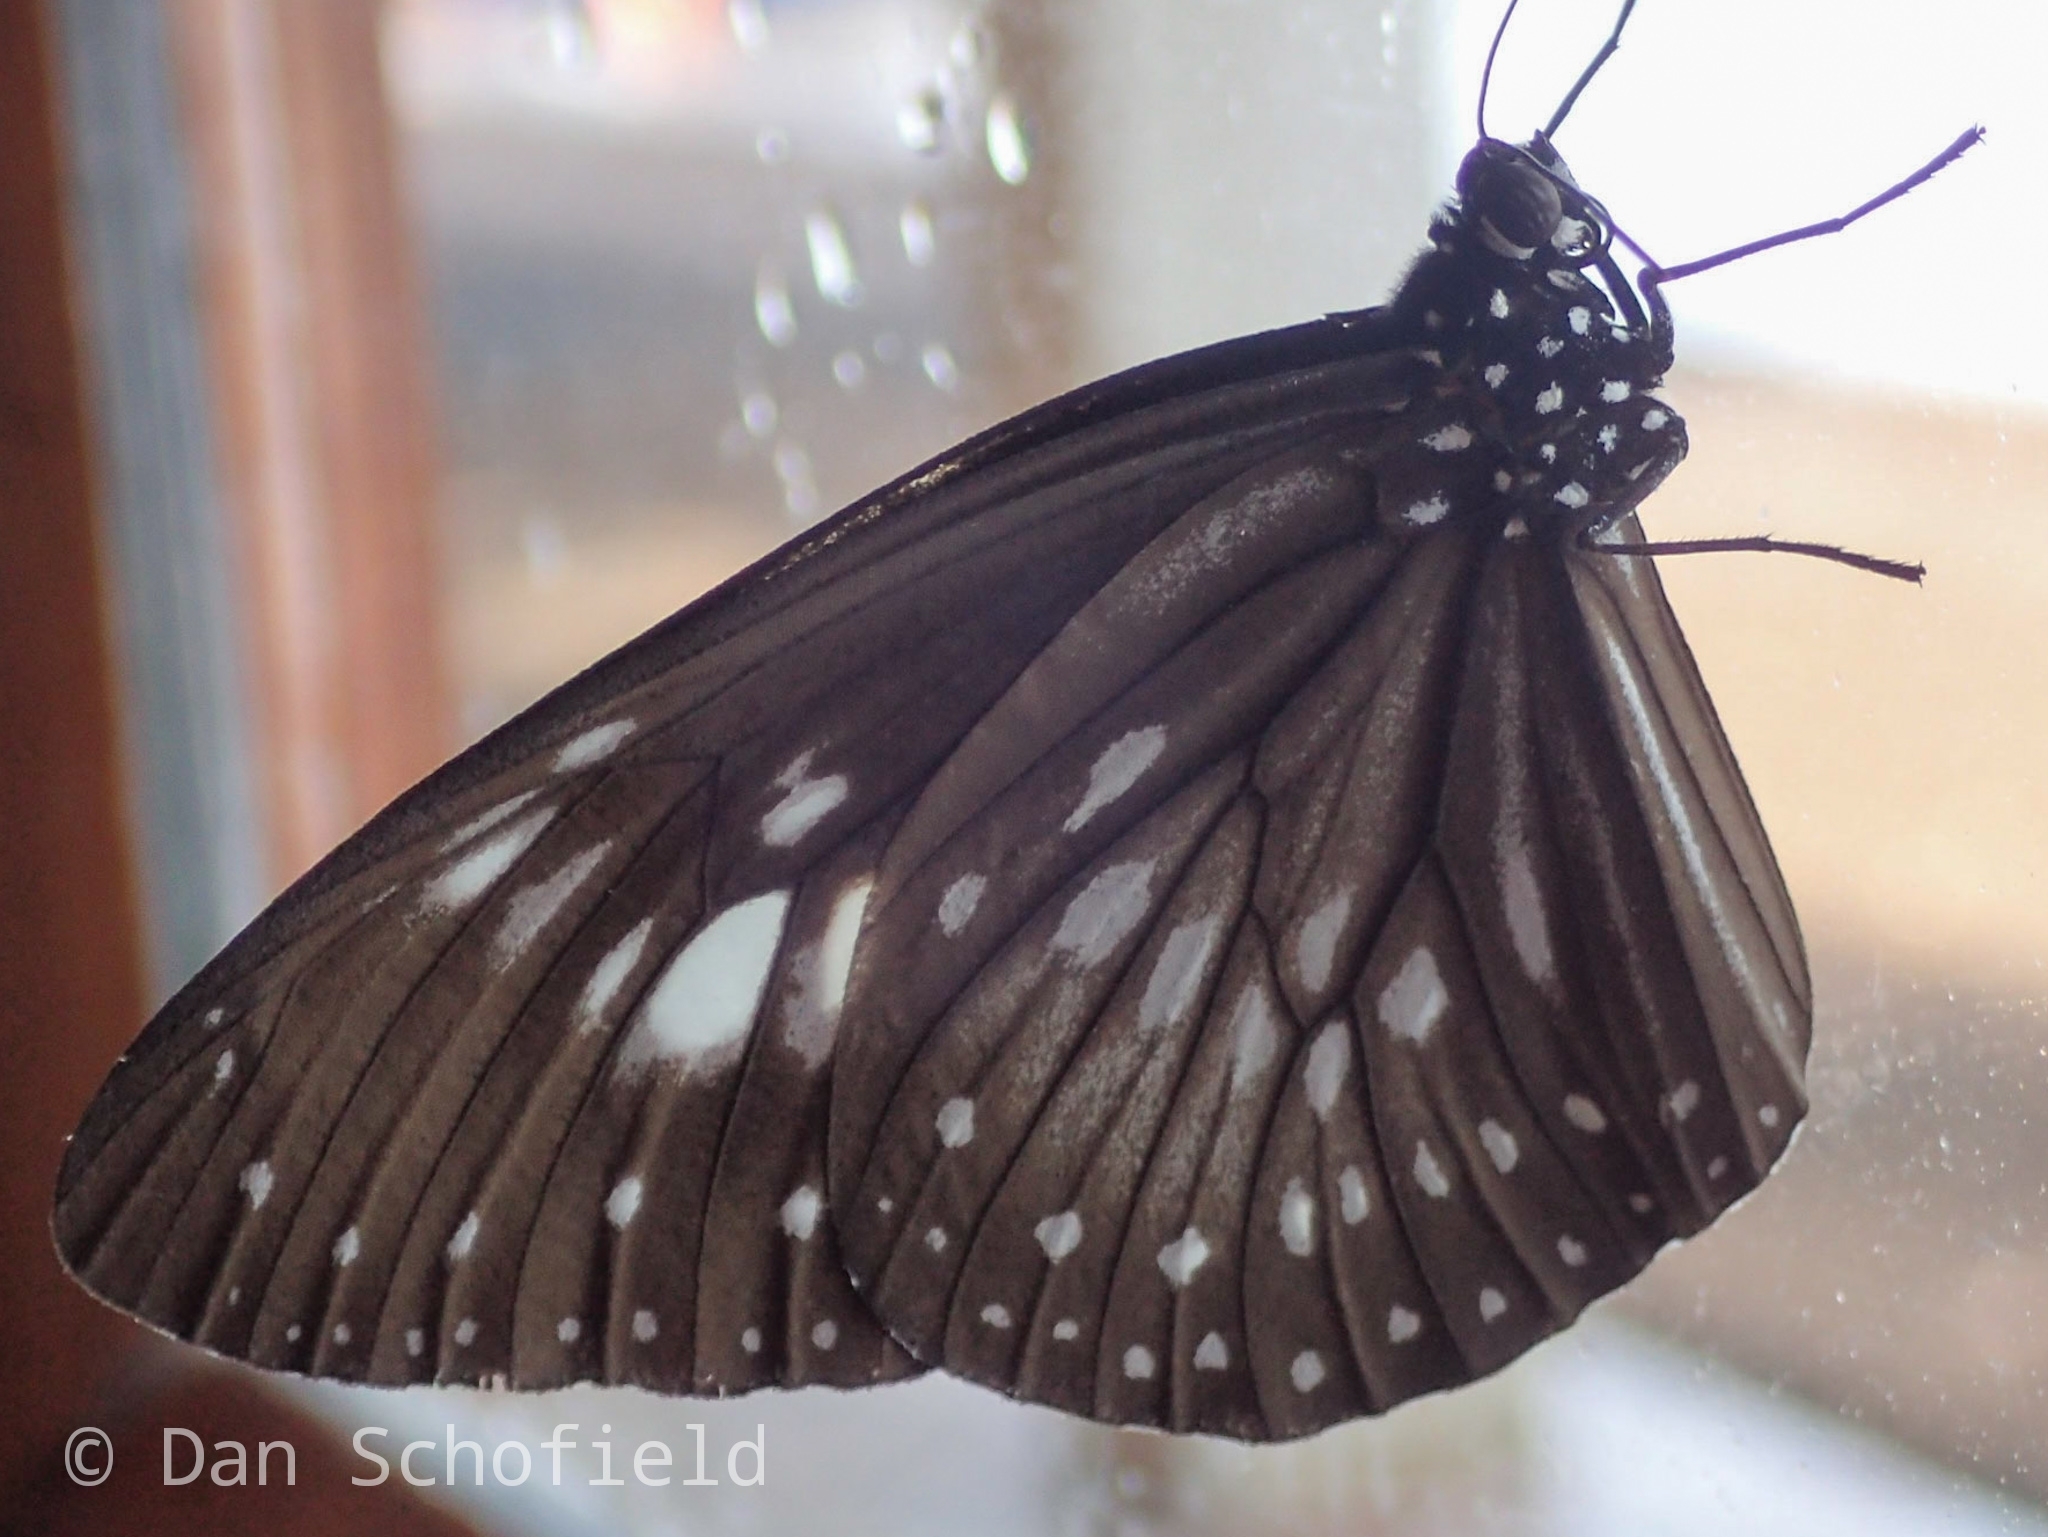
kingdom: Animalia
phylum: Arthropoda
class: Insecta
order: Lepidoptera
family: Nymphalidae
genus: Euploea
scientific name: Euploea algea
